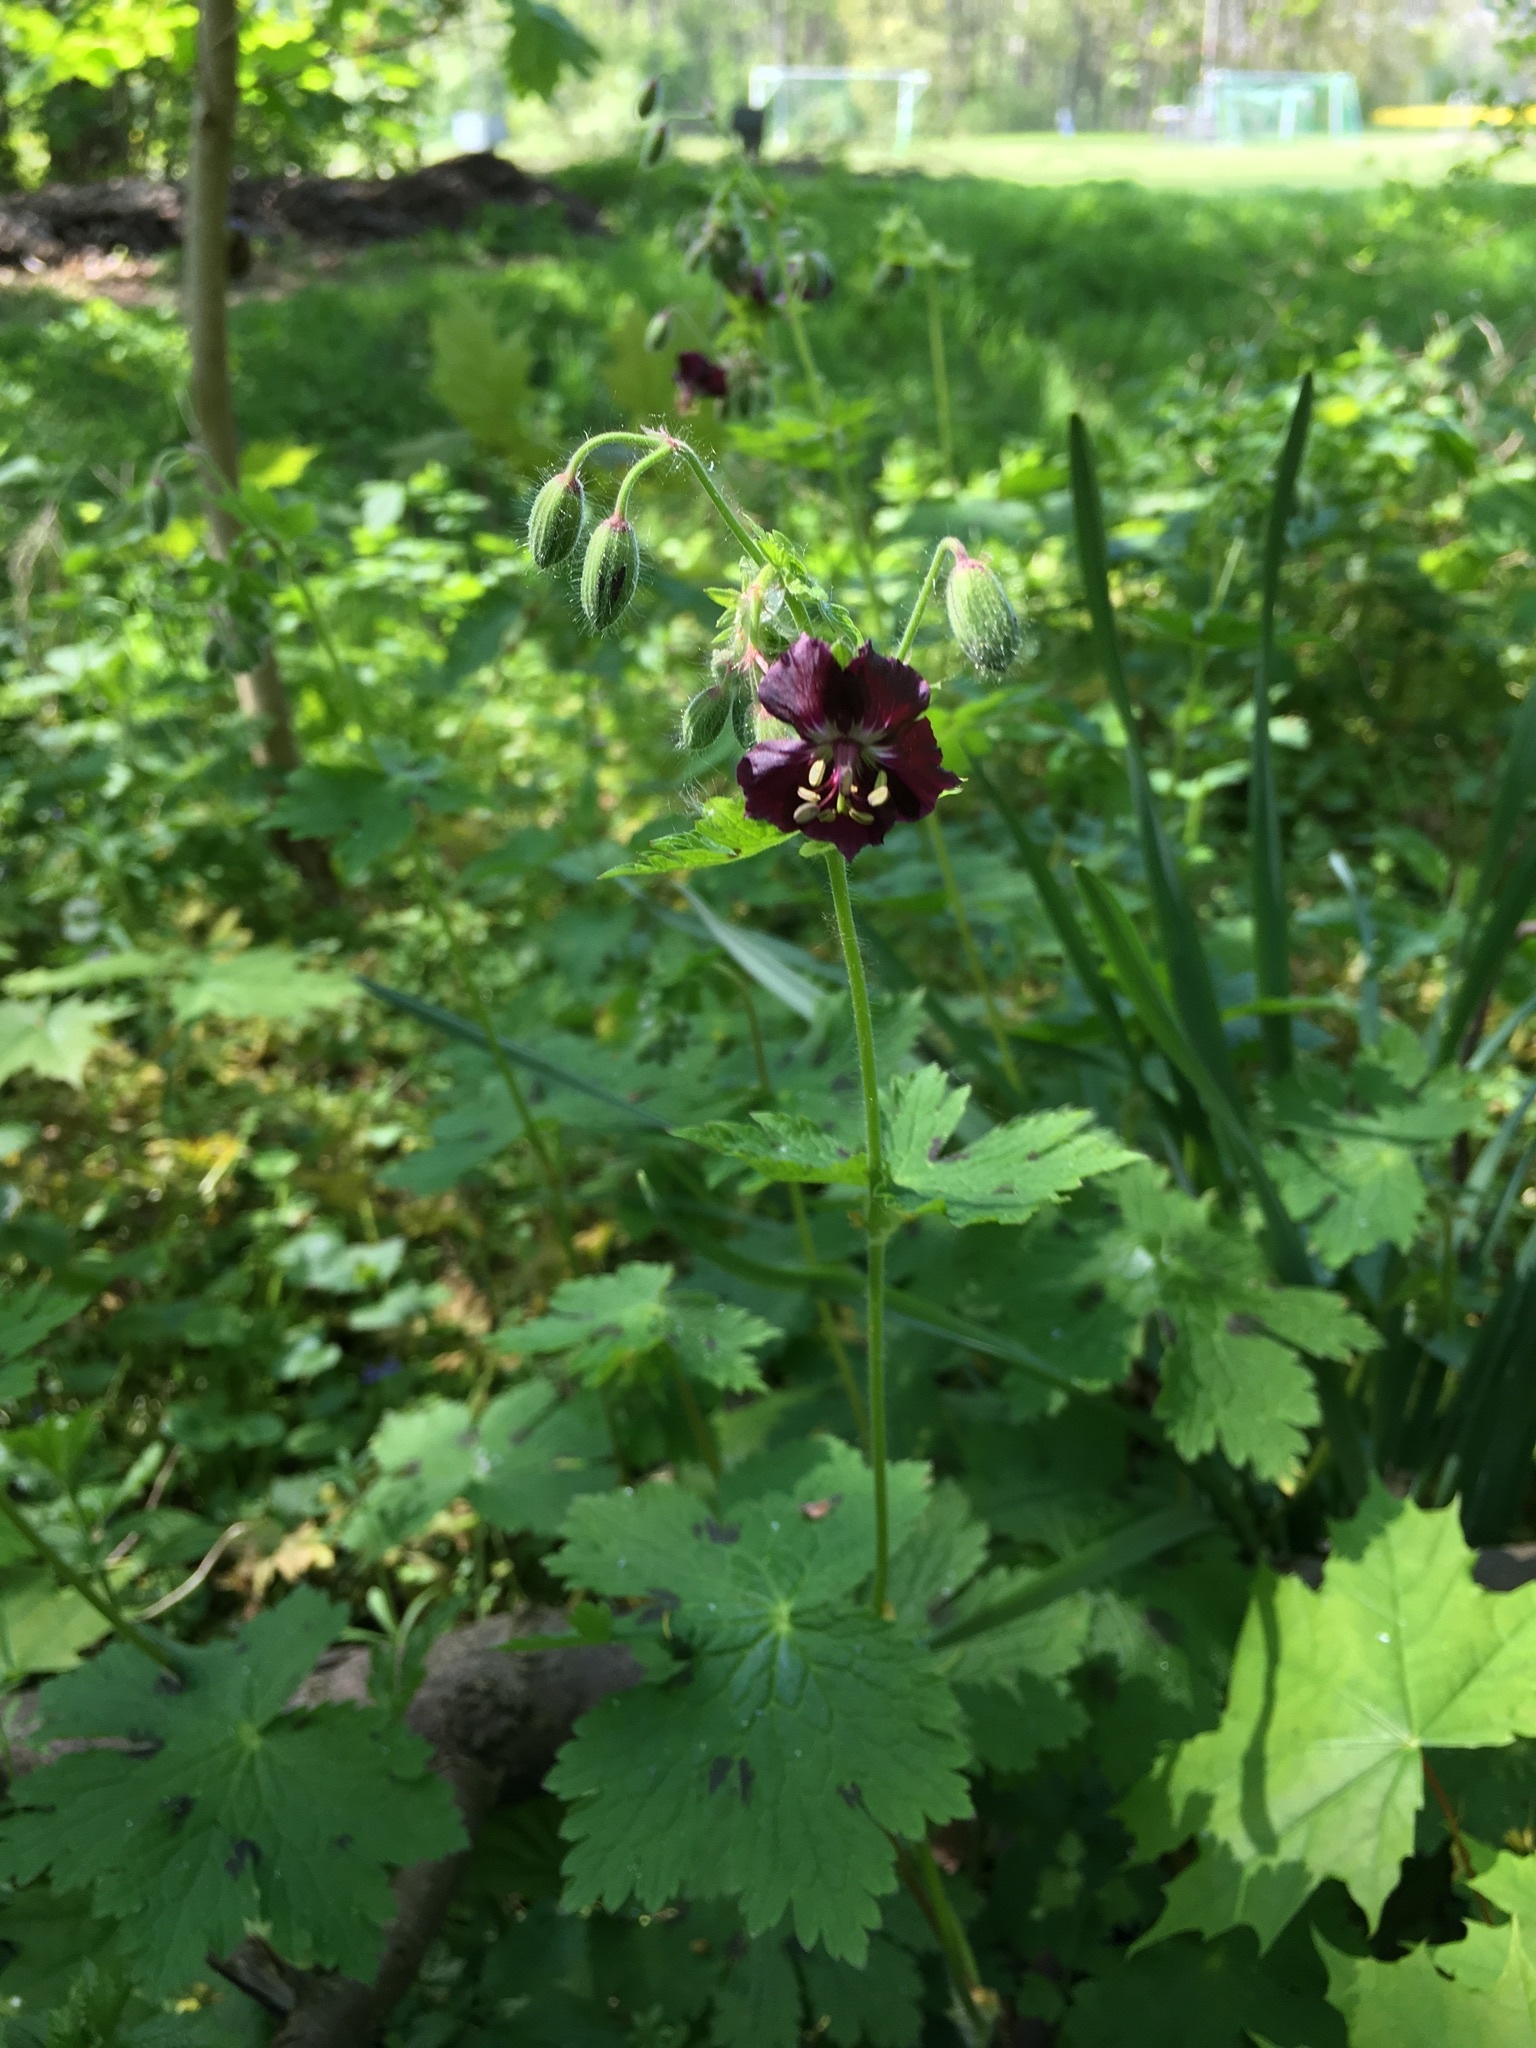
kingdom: Plantae
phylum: Tracheophyta
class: Magnoliopsida
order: Geraniales
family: Geraniaceae
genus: Geranium
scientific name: Geranium phaeum
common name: Dusky crane's-bill
